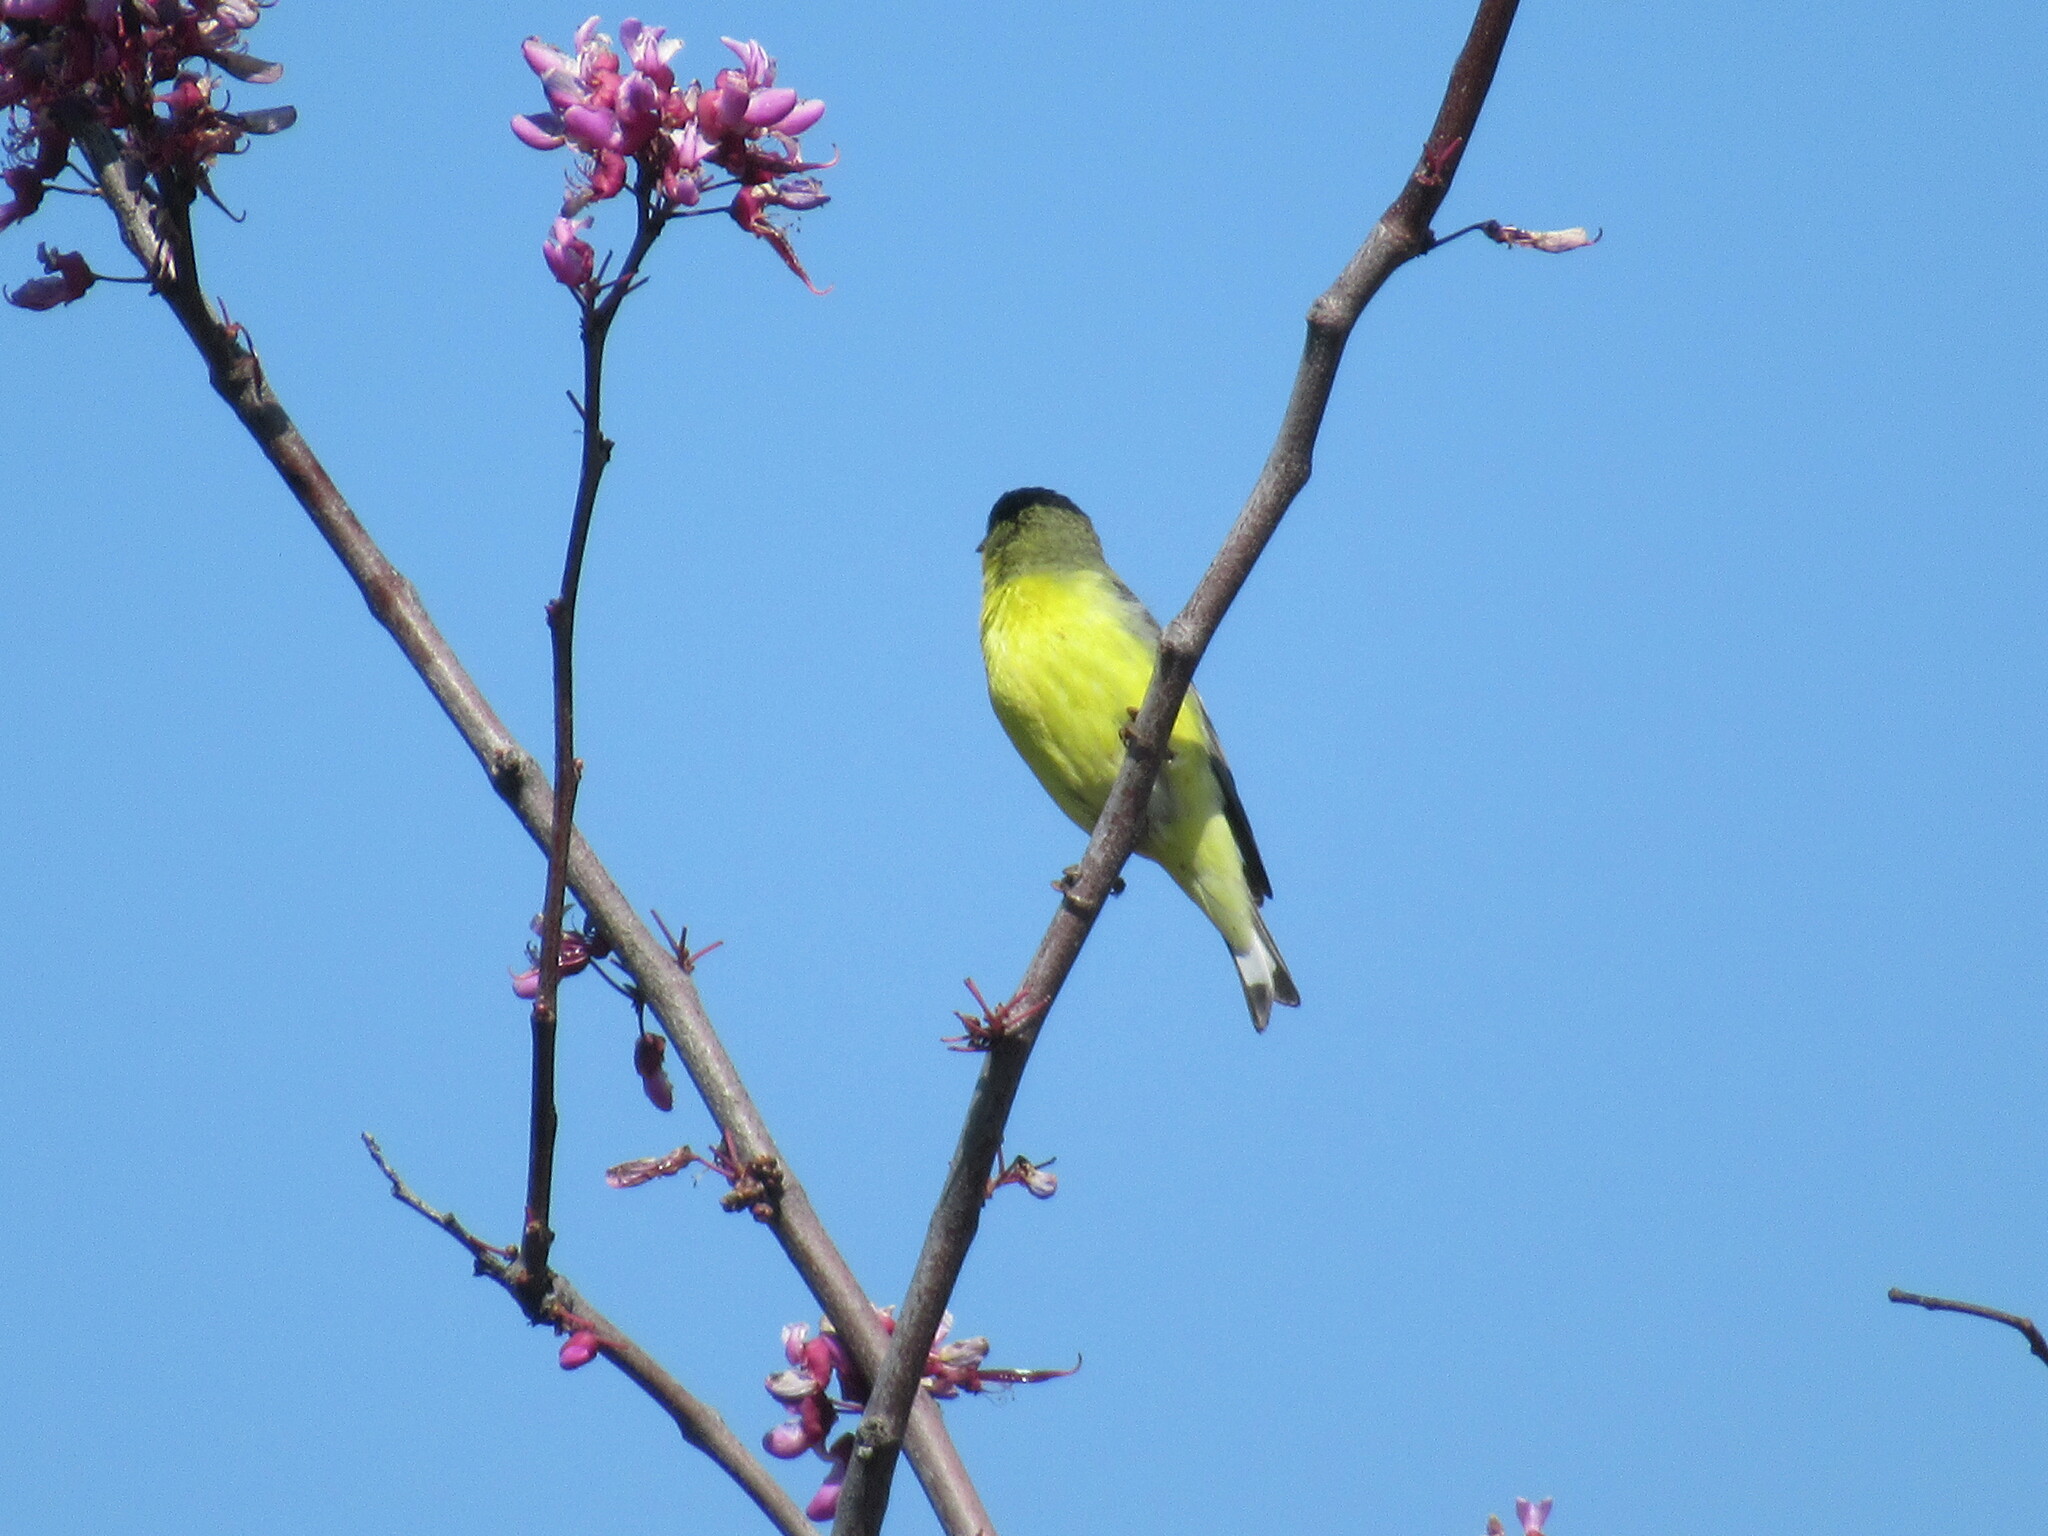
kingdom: Animalia
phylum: Chordata
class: Aves
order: Passeriformes
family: Fringillidae
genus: Spinus
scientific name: Spinus psaltria
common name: Lesser goldfinch
